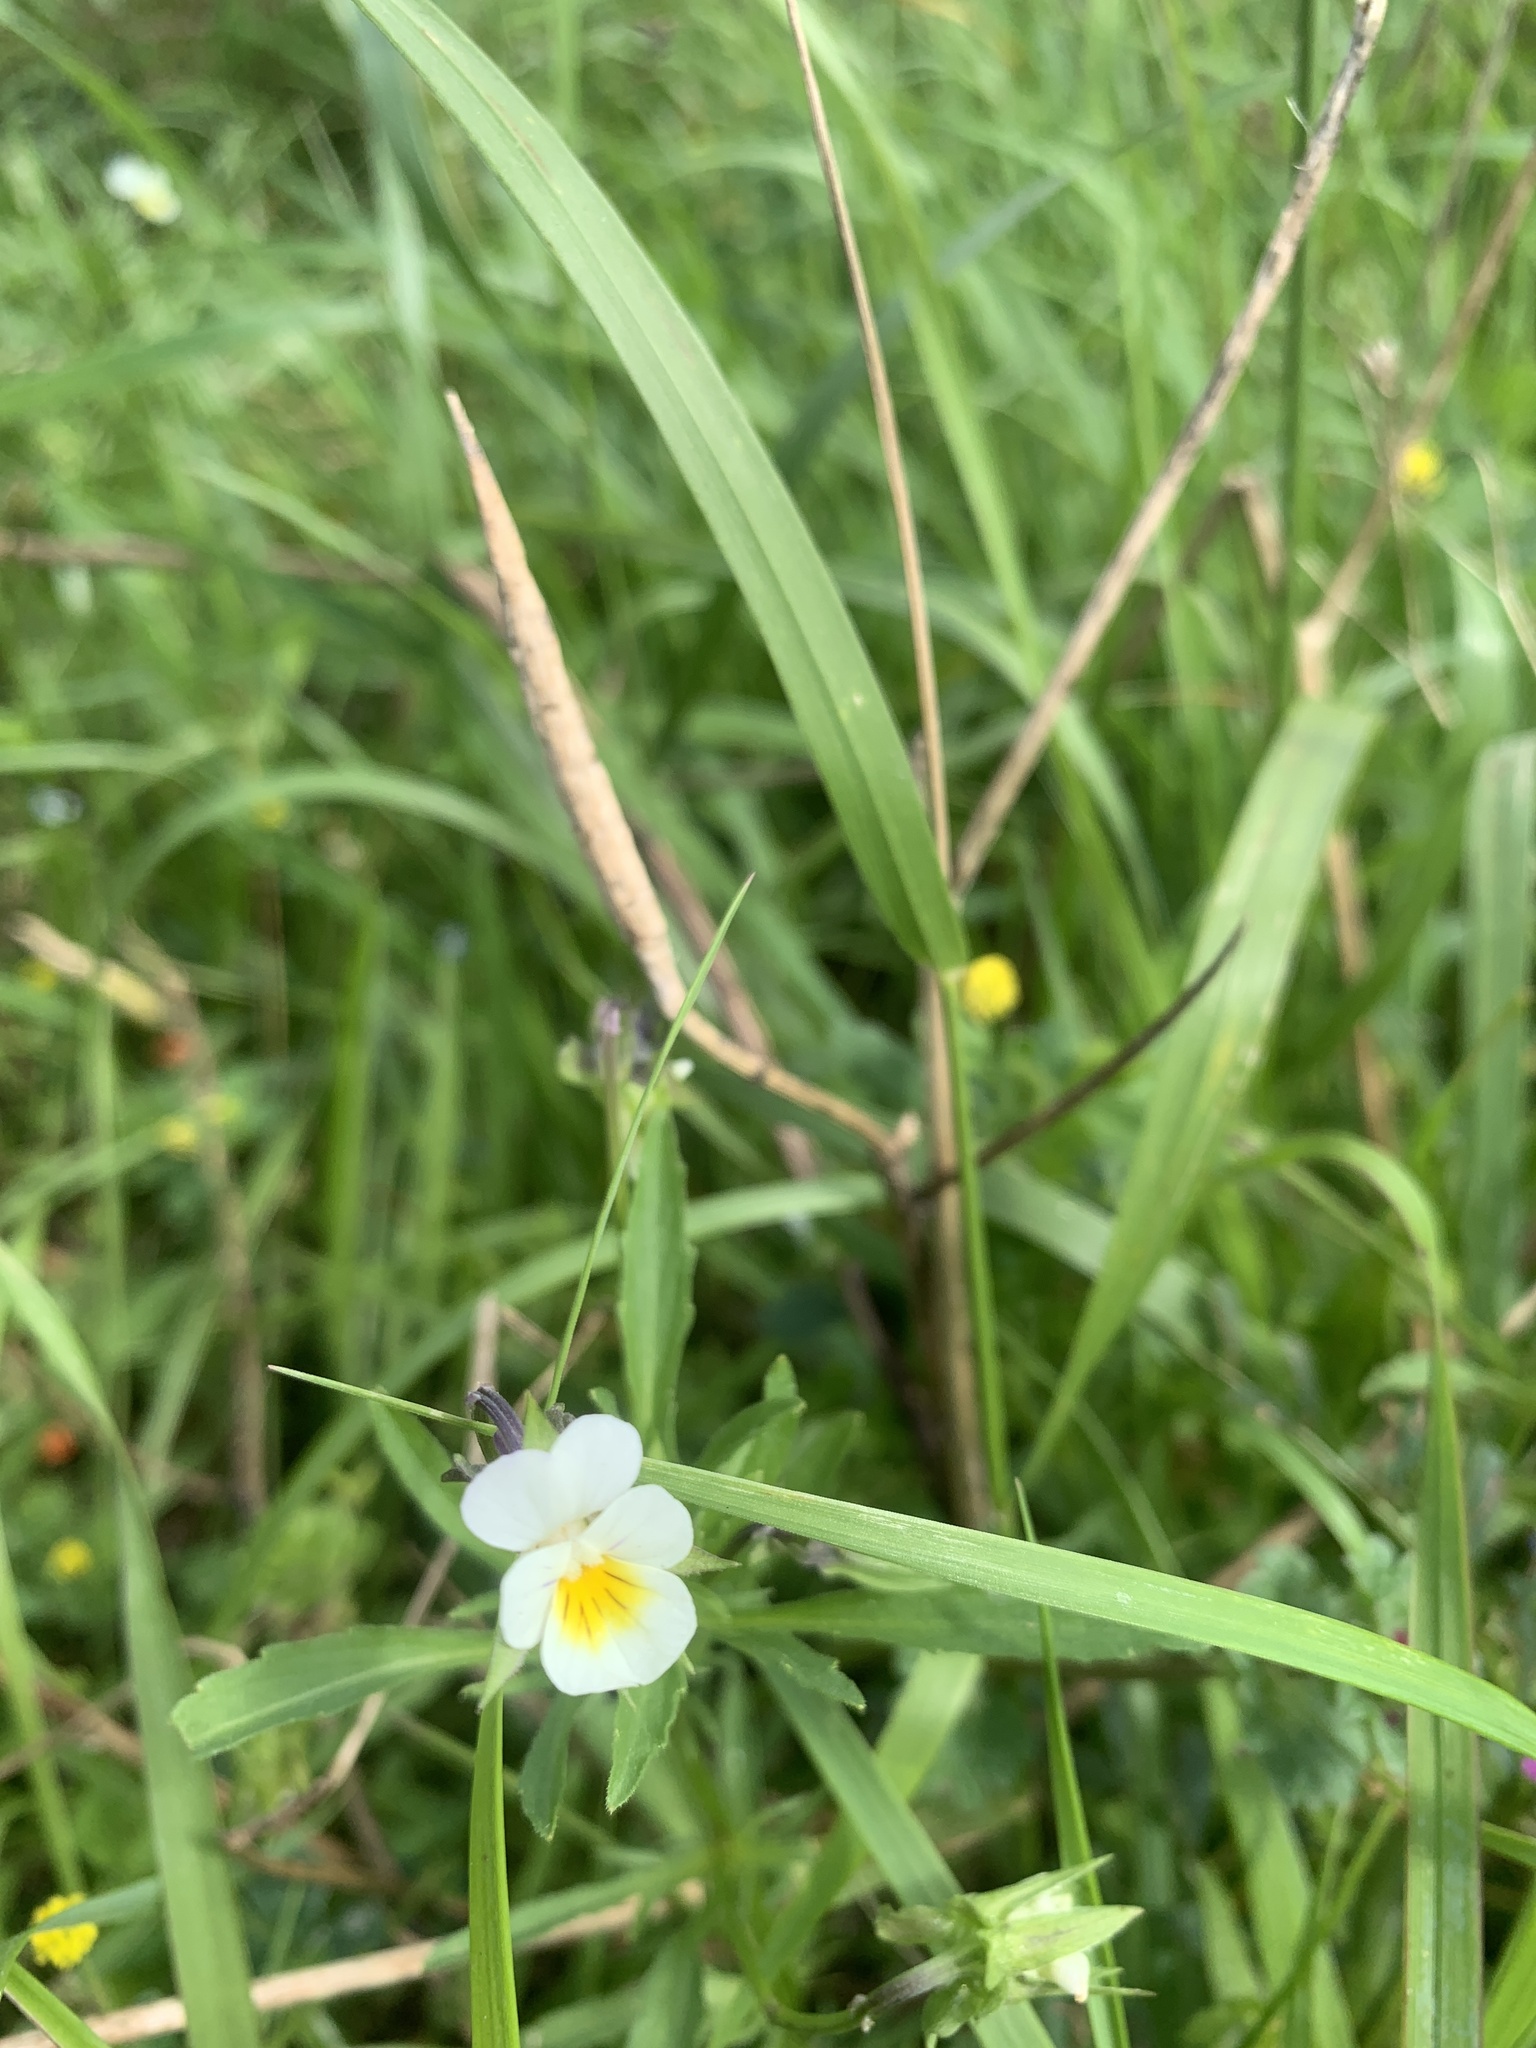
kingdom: Plantae
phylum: Tracheophyta
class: Magnoliopsida
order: Malpighiales
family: Violaceae
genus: Viola
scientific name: Viola arvensis
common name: Field pansy
